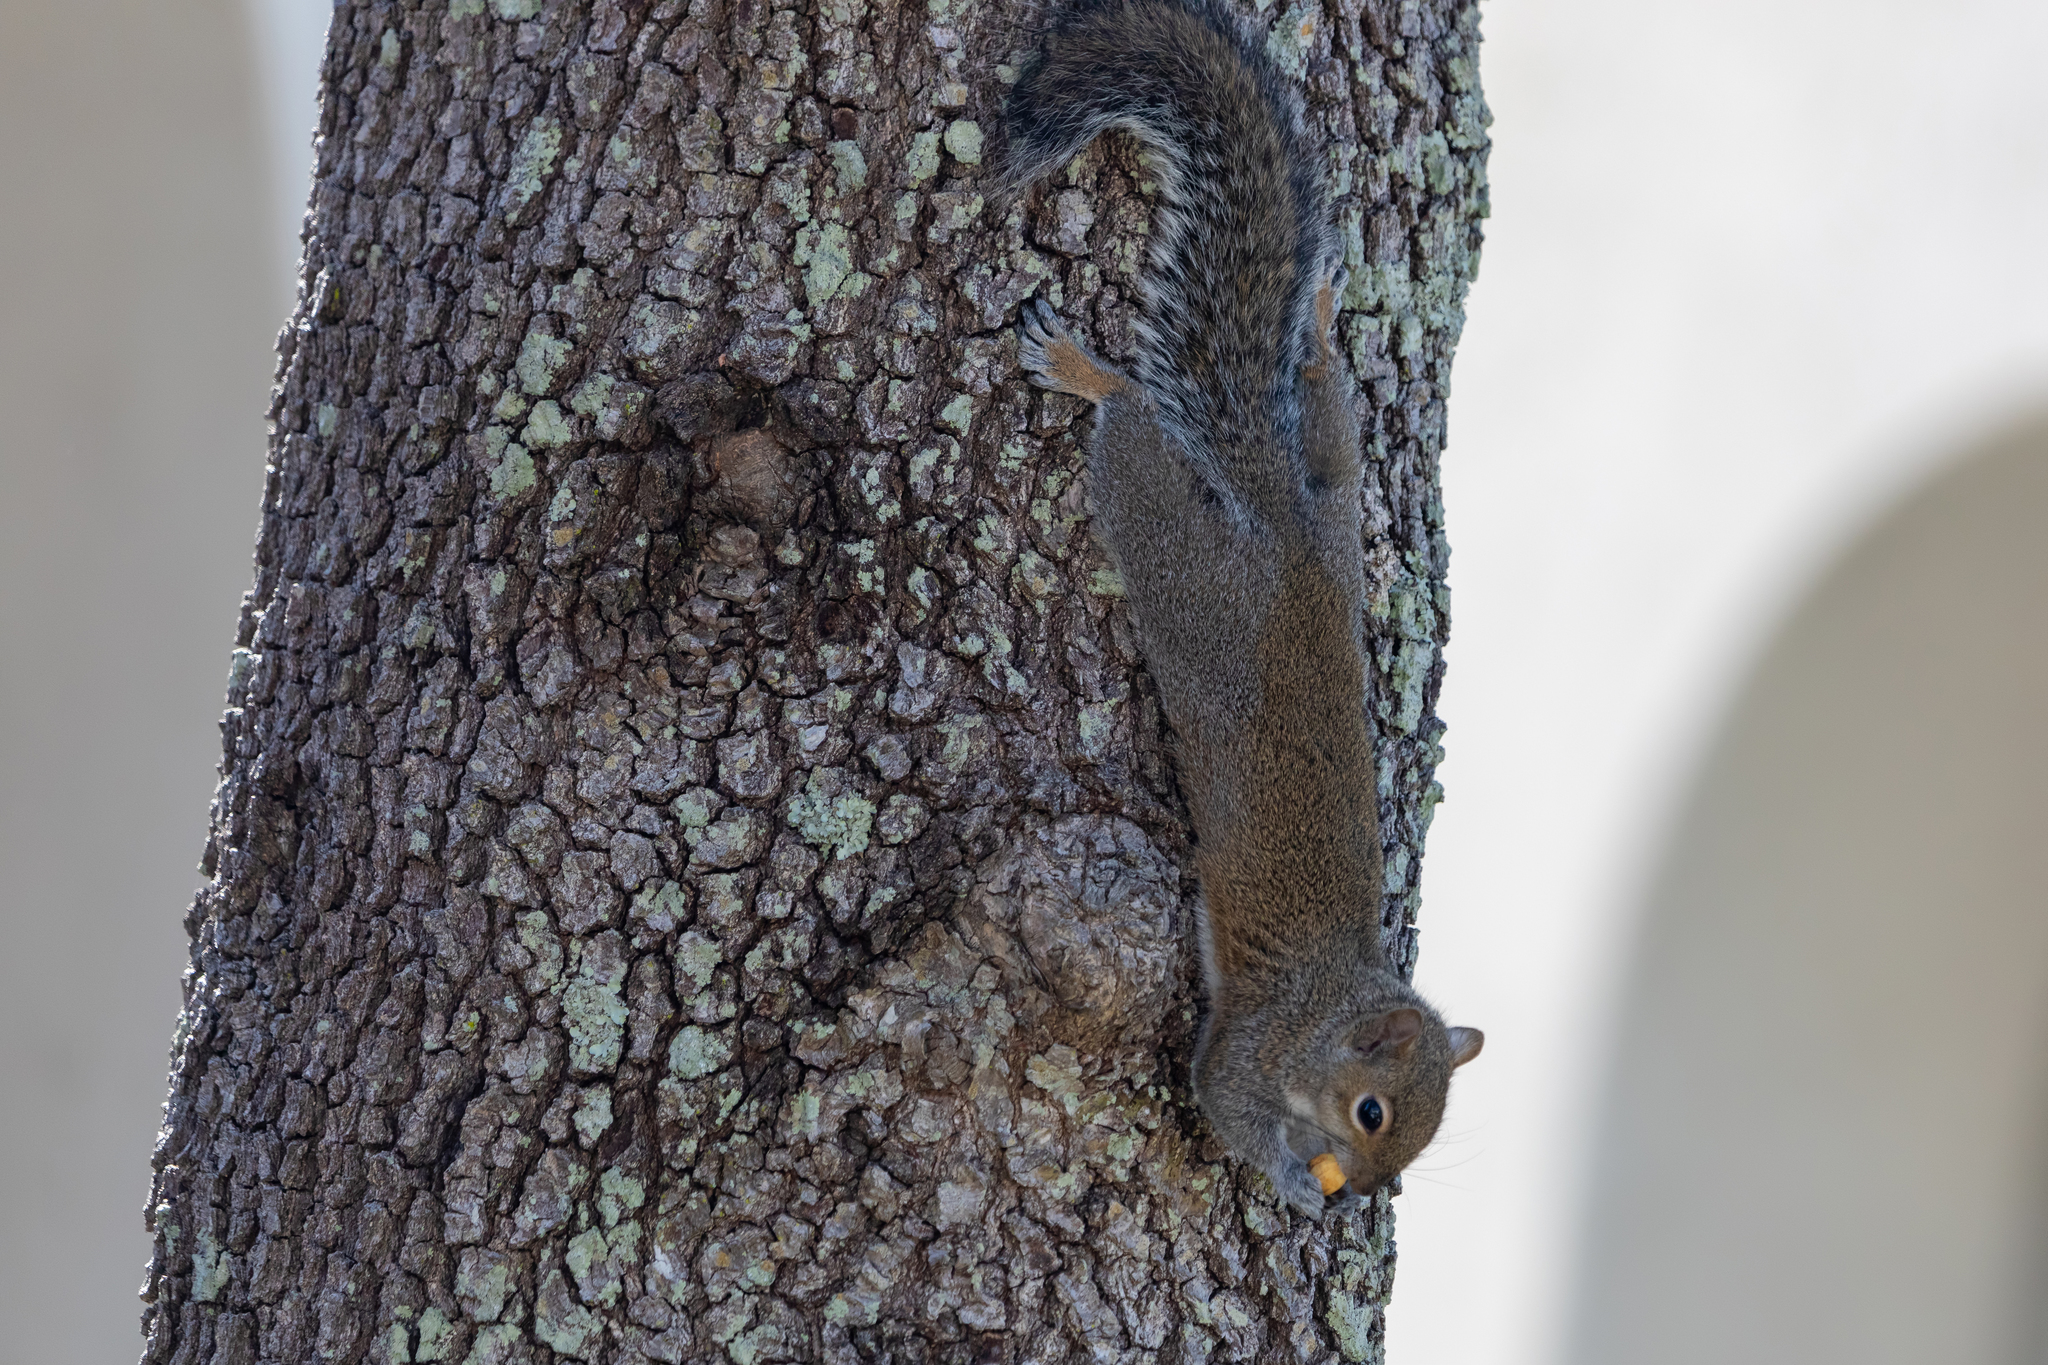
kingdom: Animalia
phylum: Chordata
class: Mammalia
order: Rodentia
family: Sciuridae
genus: Sciurus
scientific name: Sciurus carolinensis
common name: Eastern gray squirrel
